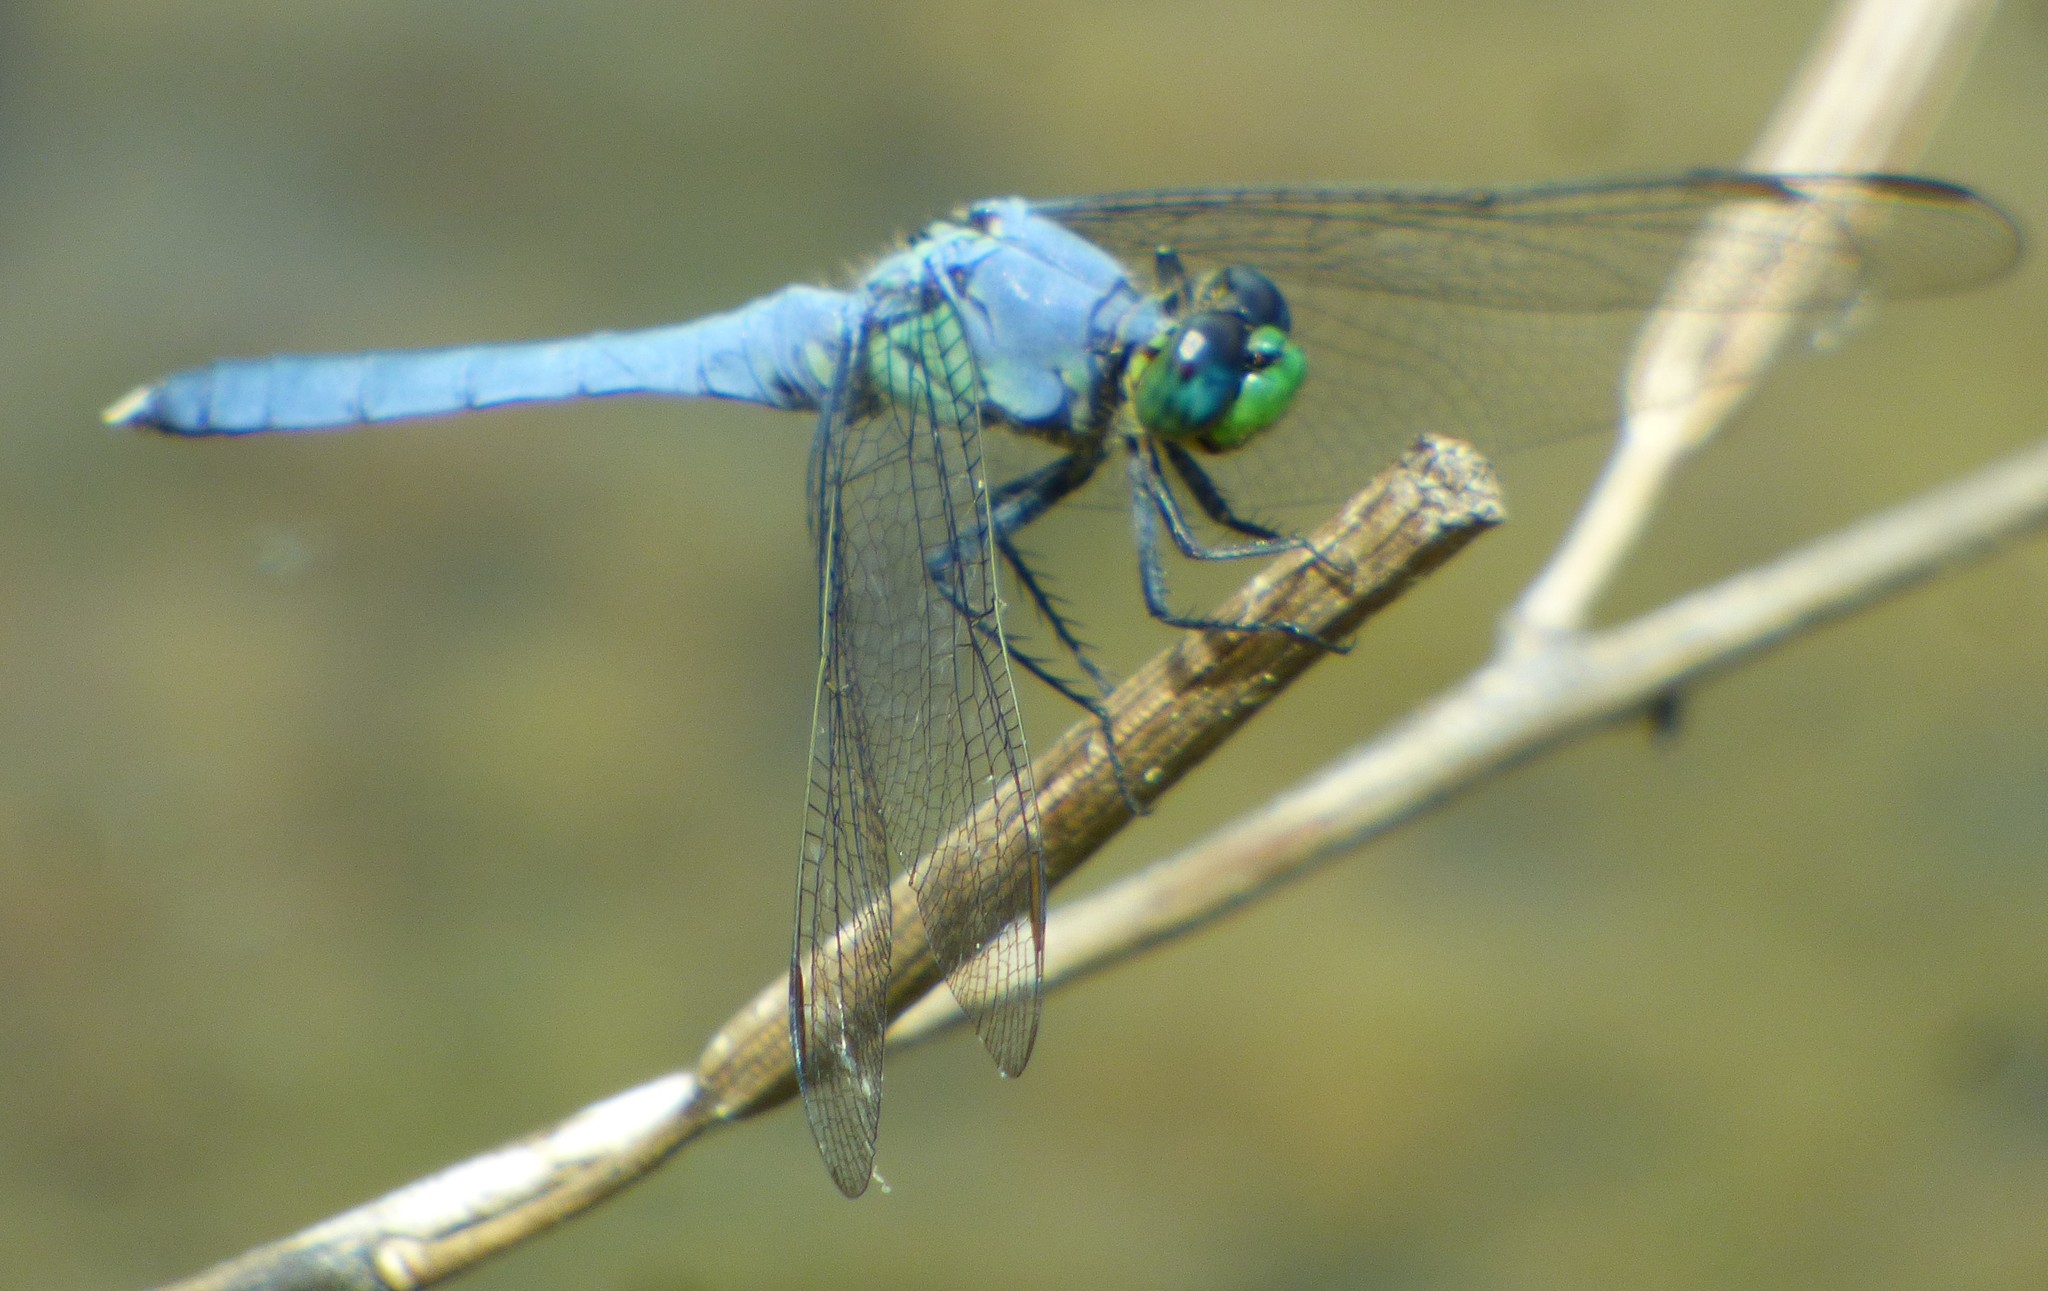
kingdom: Animalia
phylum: Arthropoda
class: Insecta
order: Odonata
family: Libellulidae
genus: Erythemis
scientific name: Erythemis simplicicollis
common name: Eastern pondhawk
